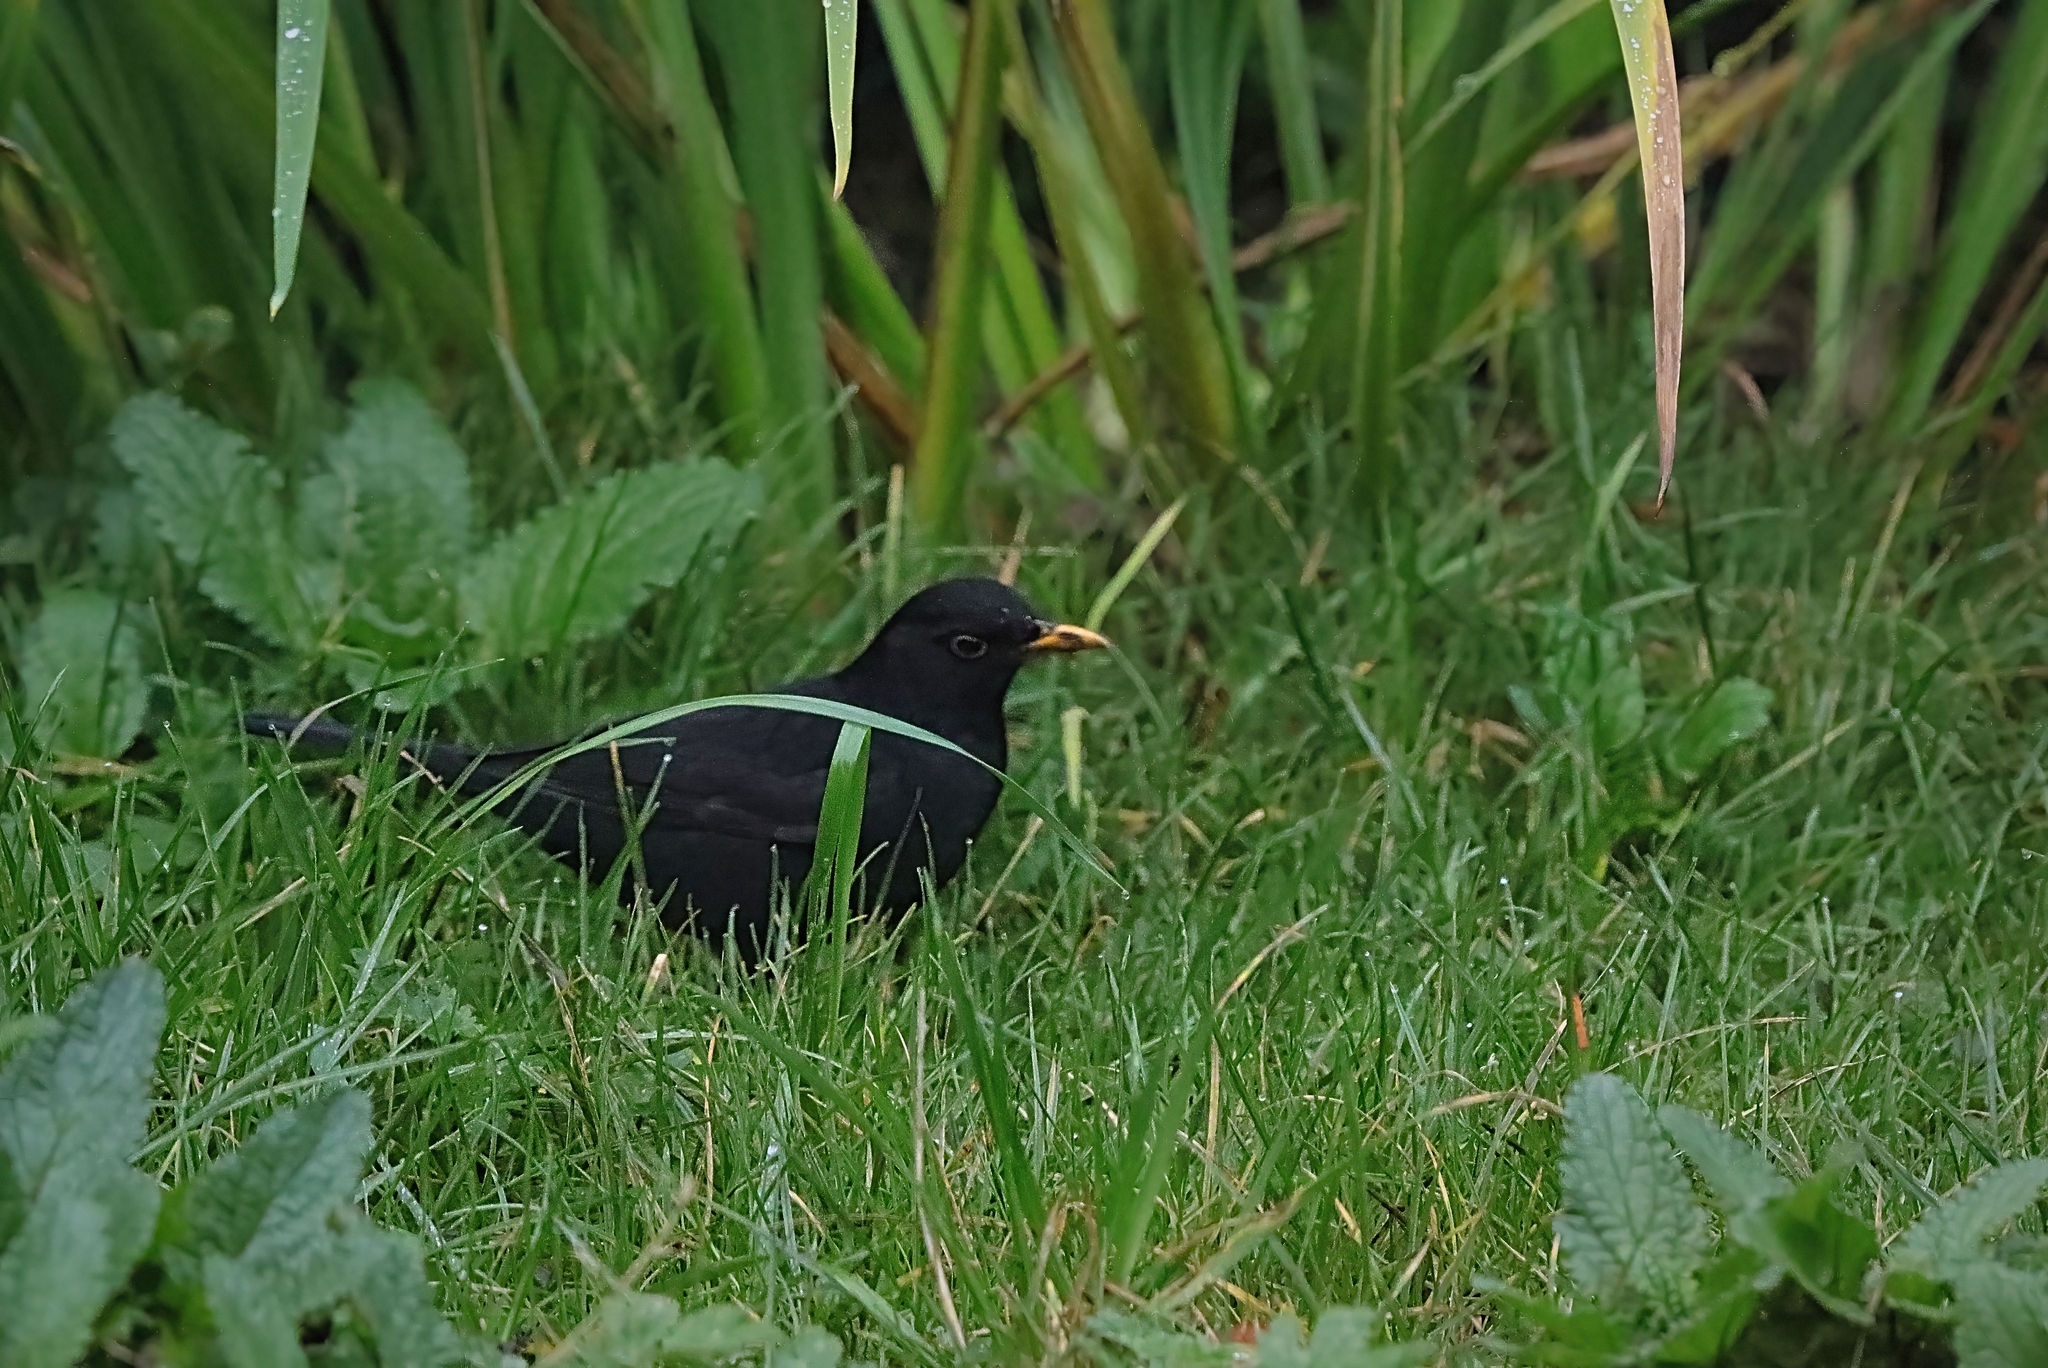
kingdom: Animalia
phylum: Chordata
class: Aves
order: Passeriformes
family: Turdidae
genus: Turdus
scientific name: Turdus merula
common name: Common blackbird
